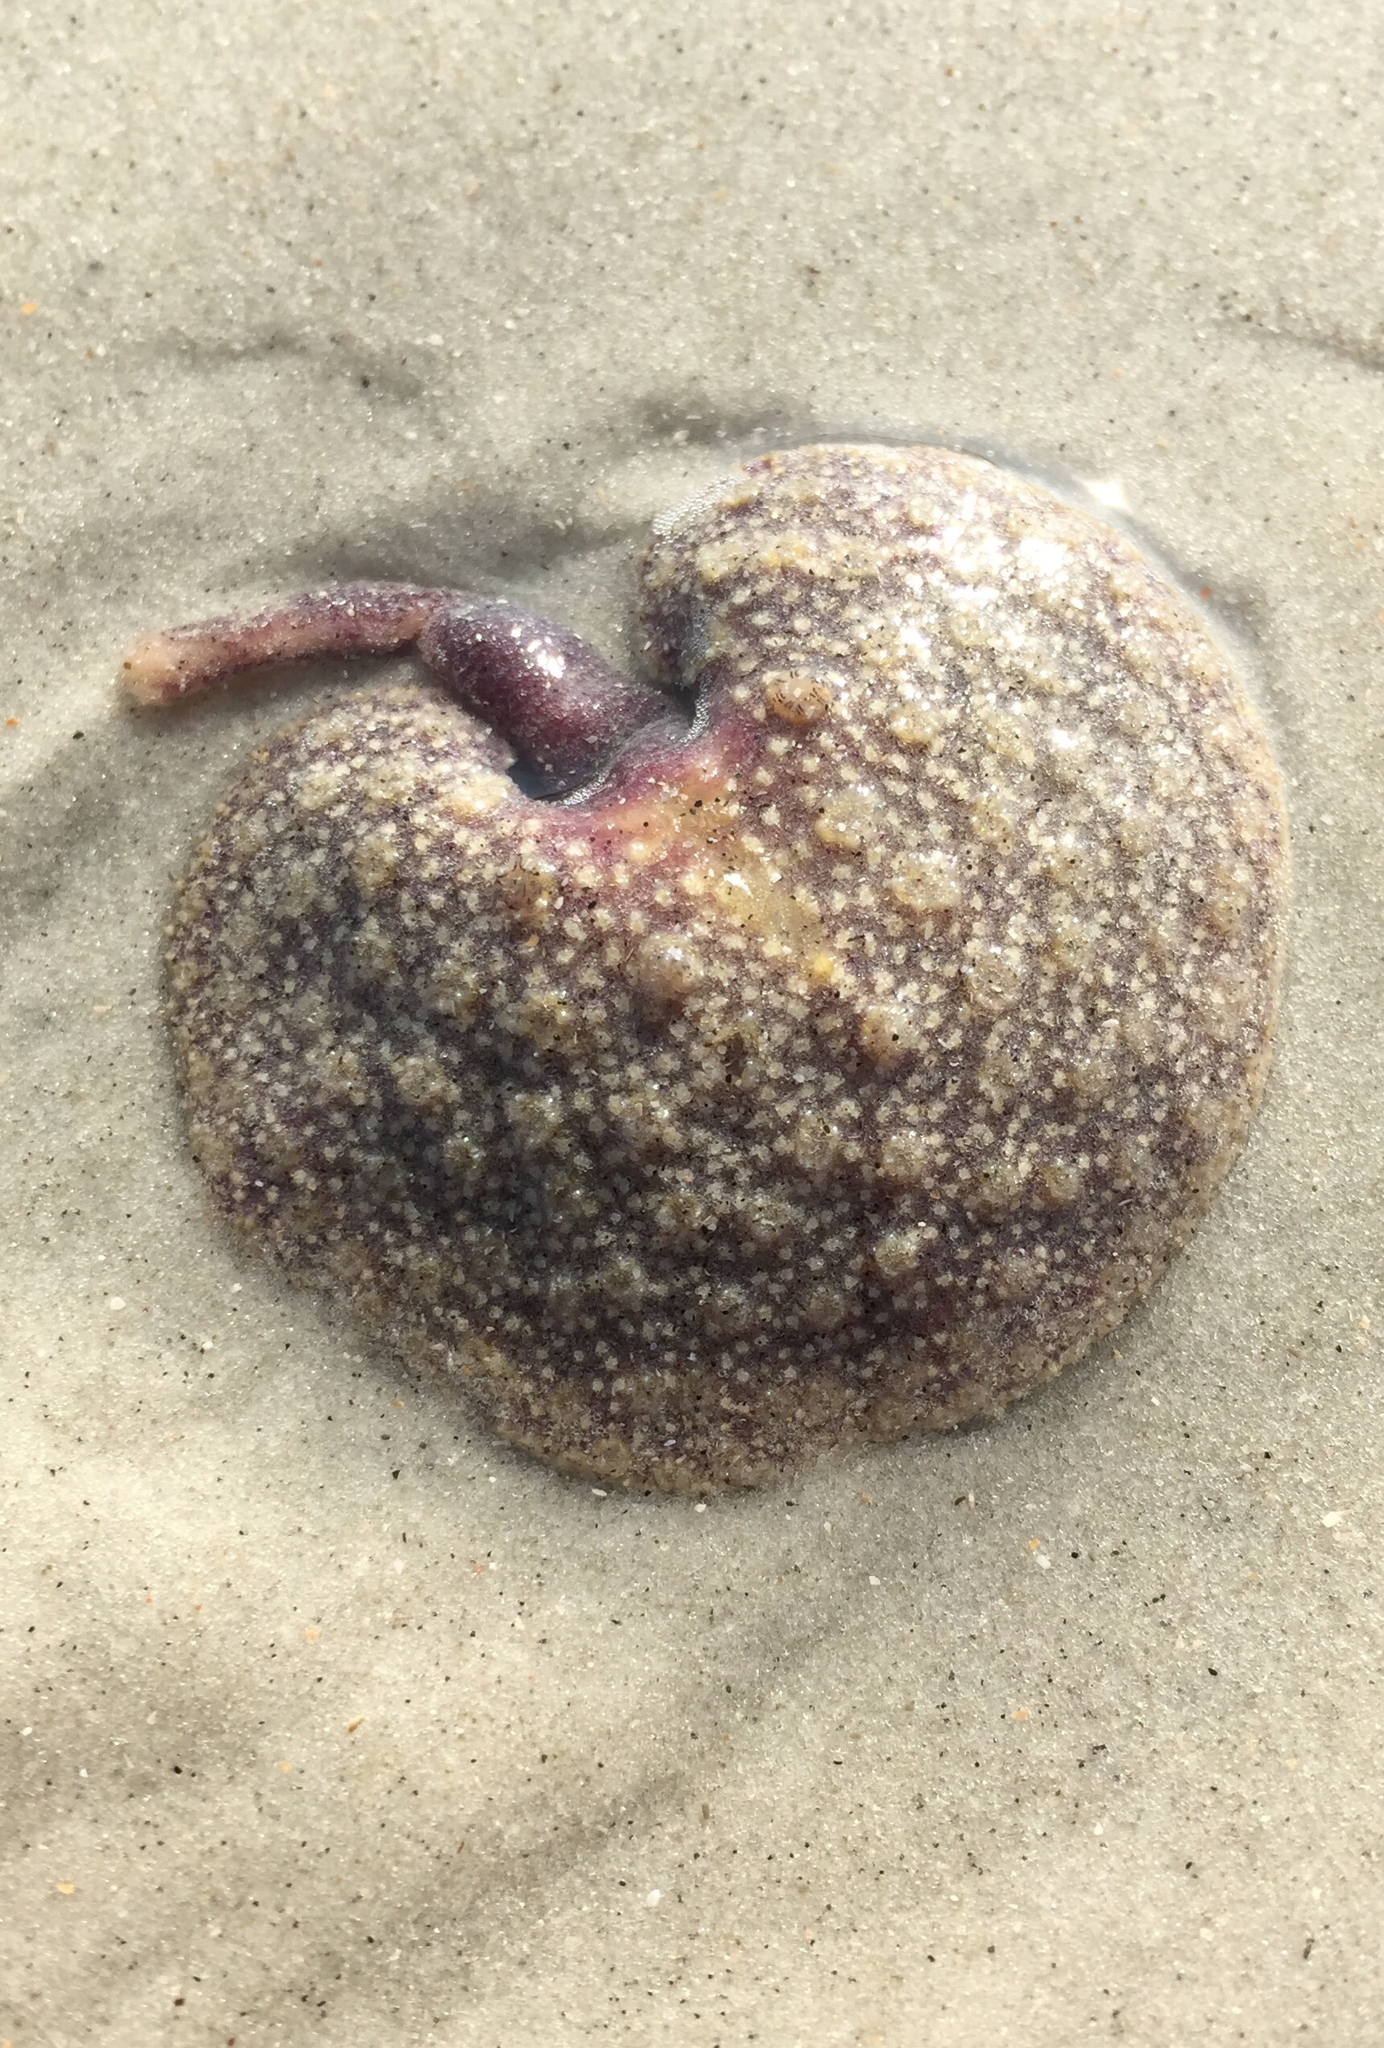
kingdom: Animalia
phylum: Cnidaria
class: Anthozoa
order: Scleralcyonacea
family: Renillidae
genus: Renilla
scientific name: Renilla reniformis
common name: Sea pansy
